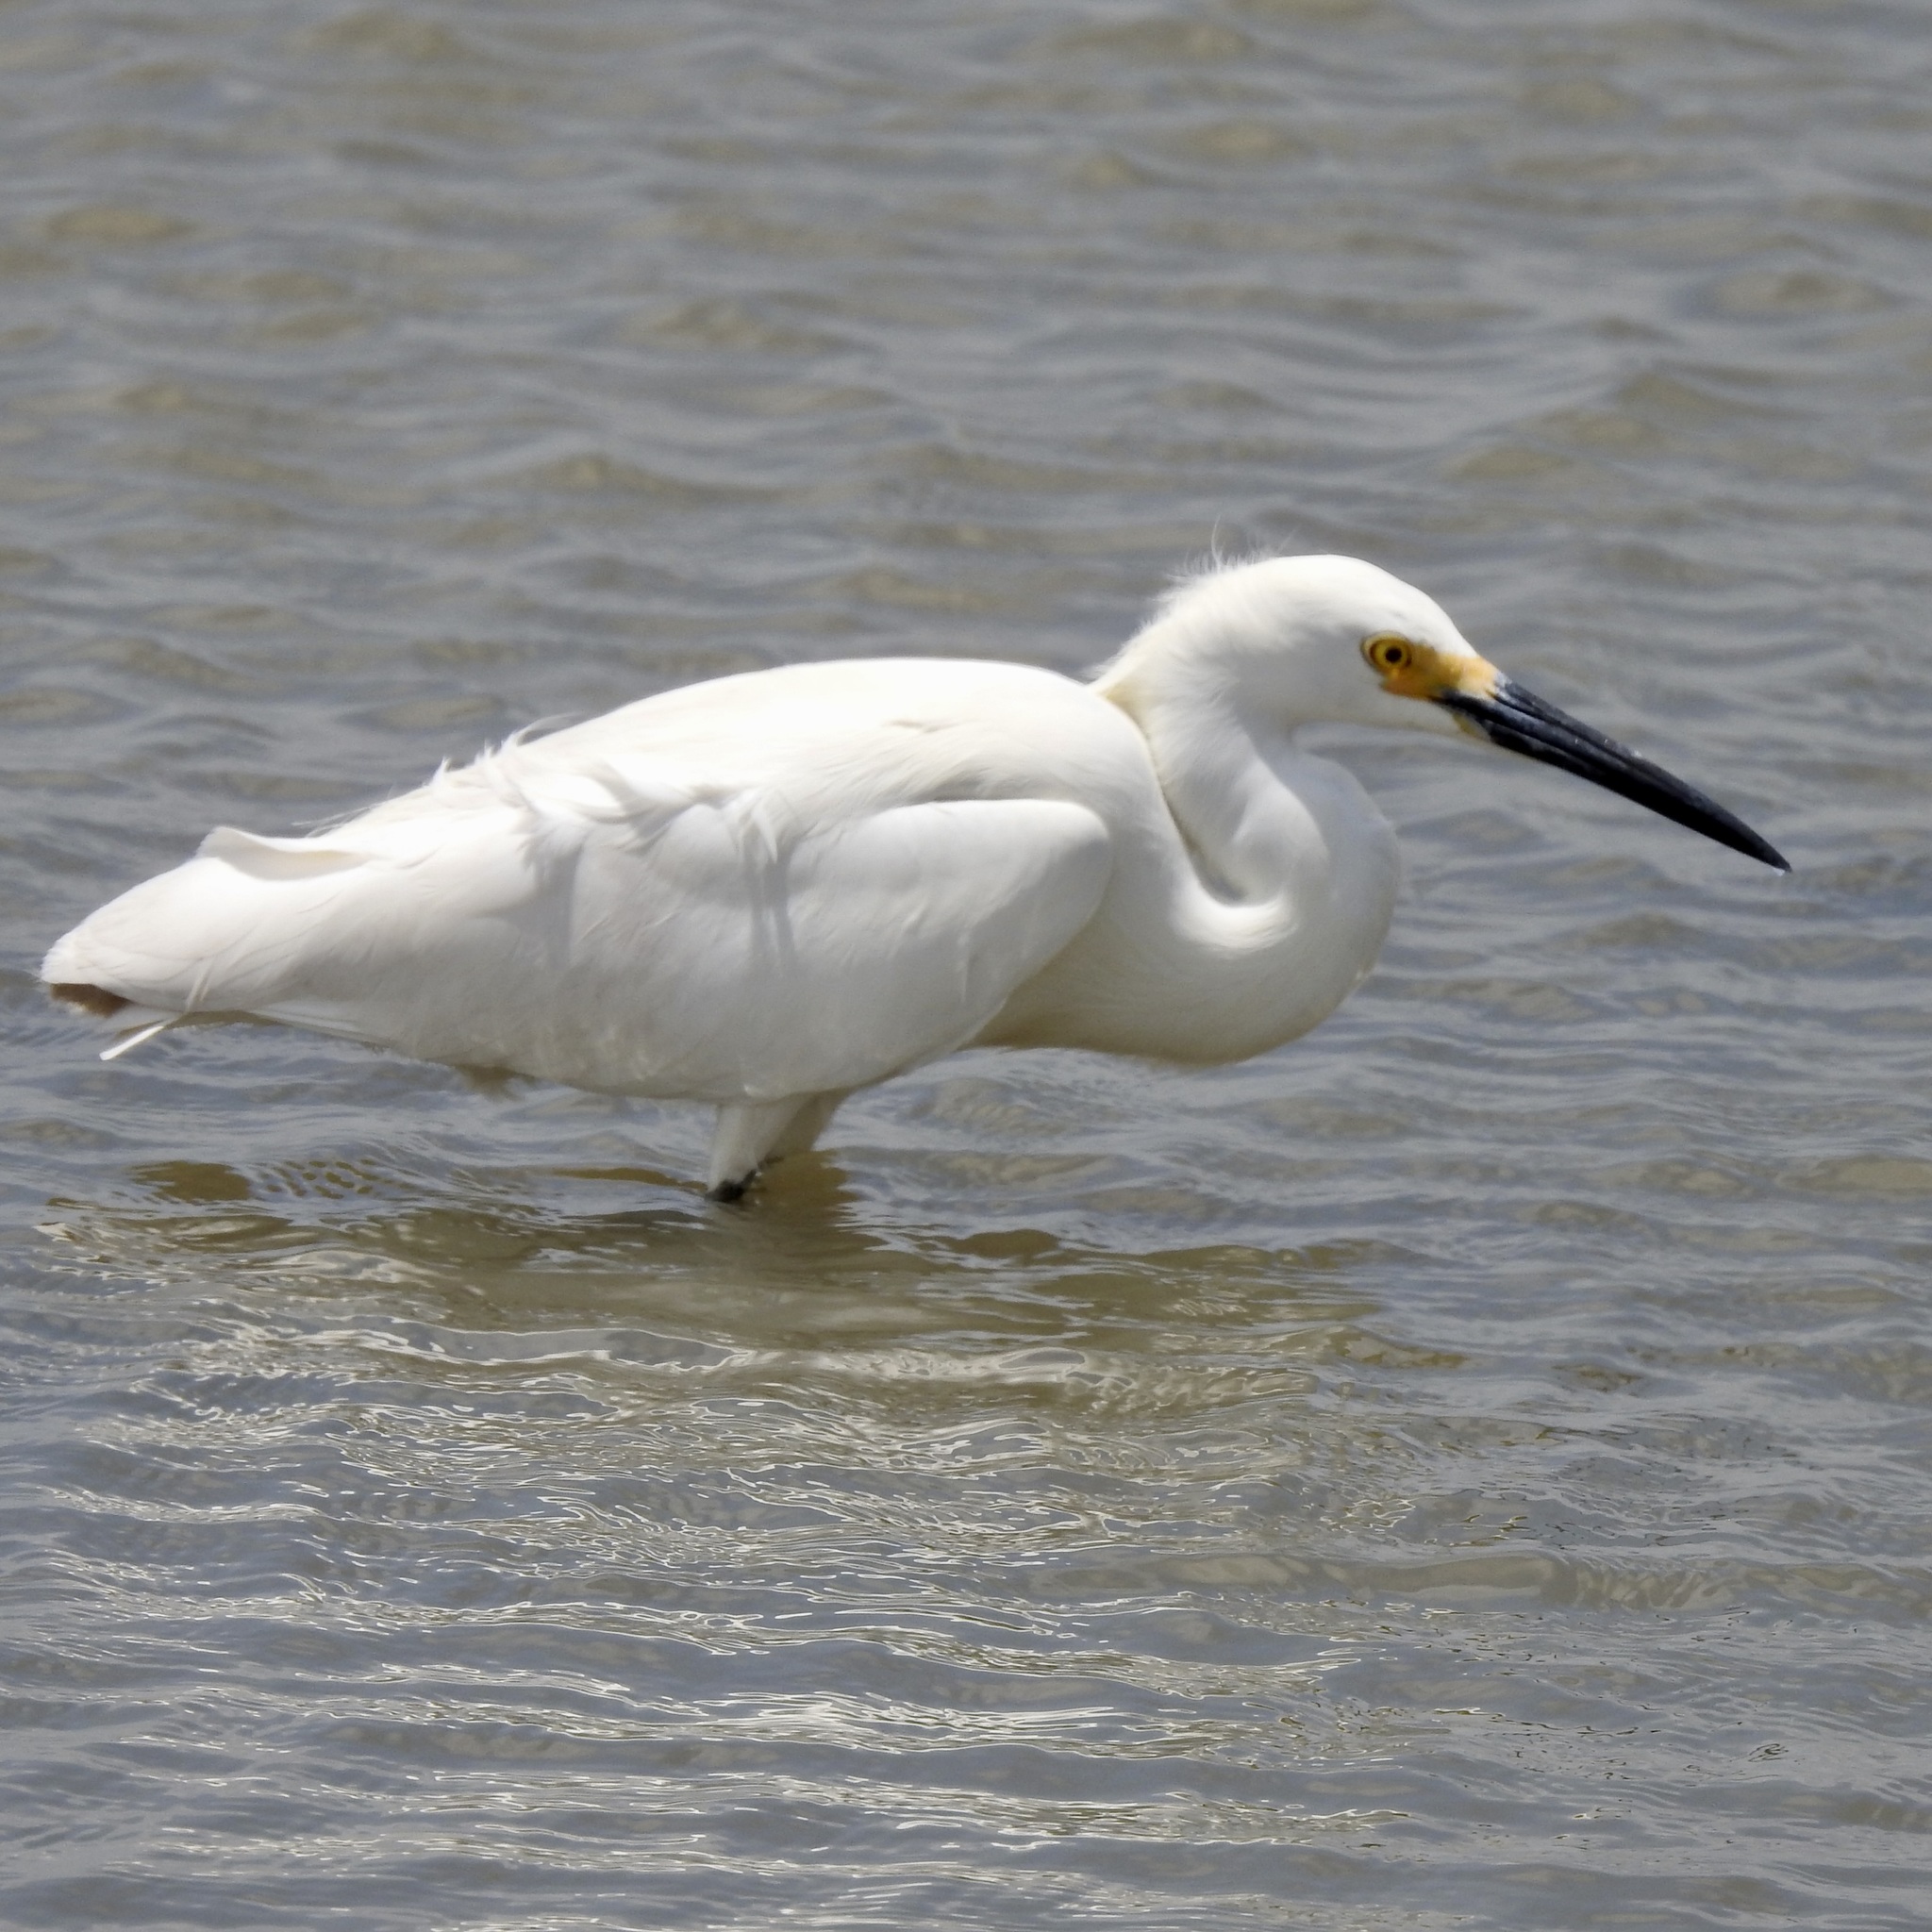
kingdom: Animalia
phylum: Chordata
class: Aves
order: Pelecaniformes
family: Ardeidae
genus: Egretta
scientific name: Egretta thula
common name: Snowy egret
